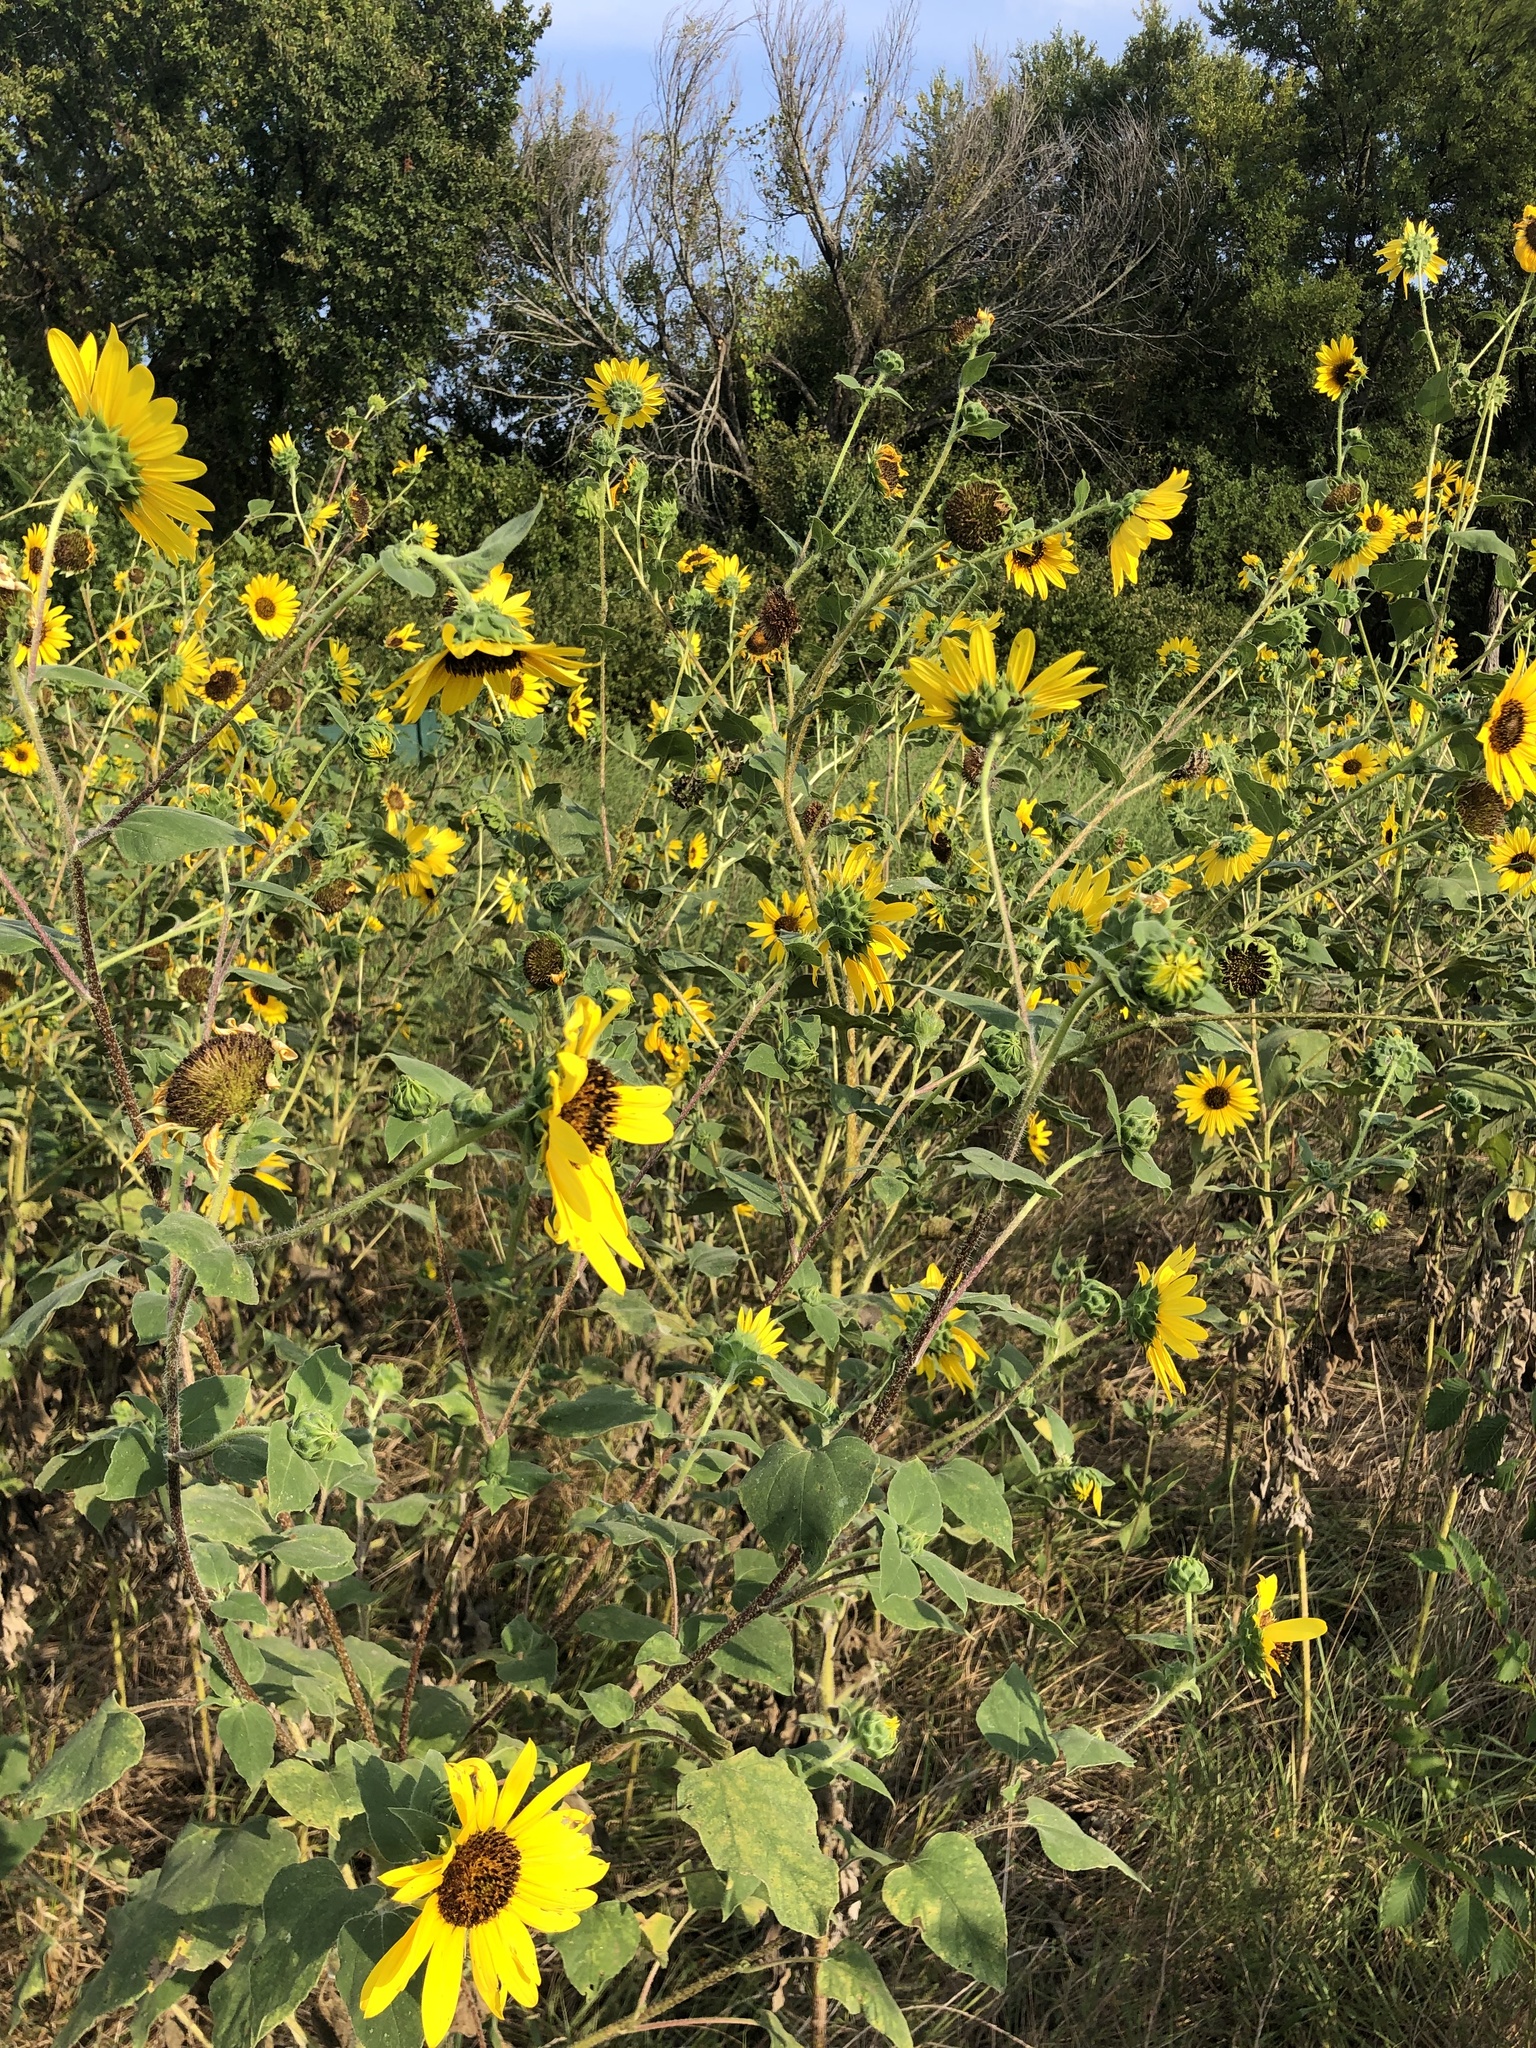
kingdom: Plantae
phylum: Tracheophyta
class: Magnoliopsida
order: Asterales
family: Asteraceae
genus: Helianthus
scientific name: Helianthus annuus
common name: Sunflower
